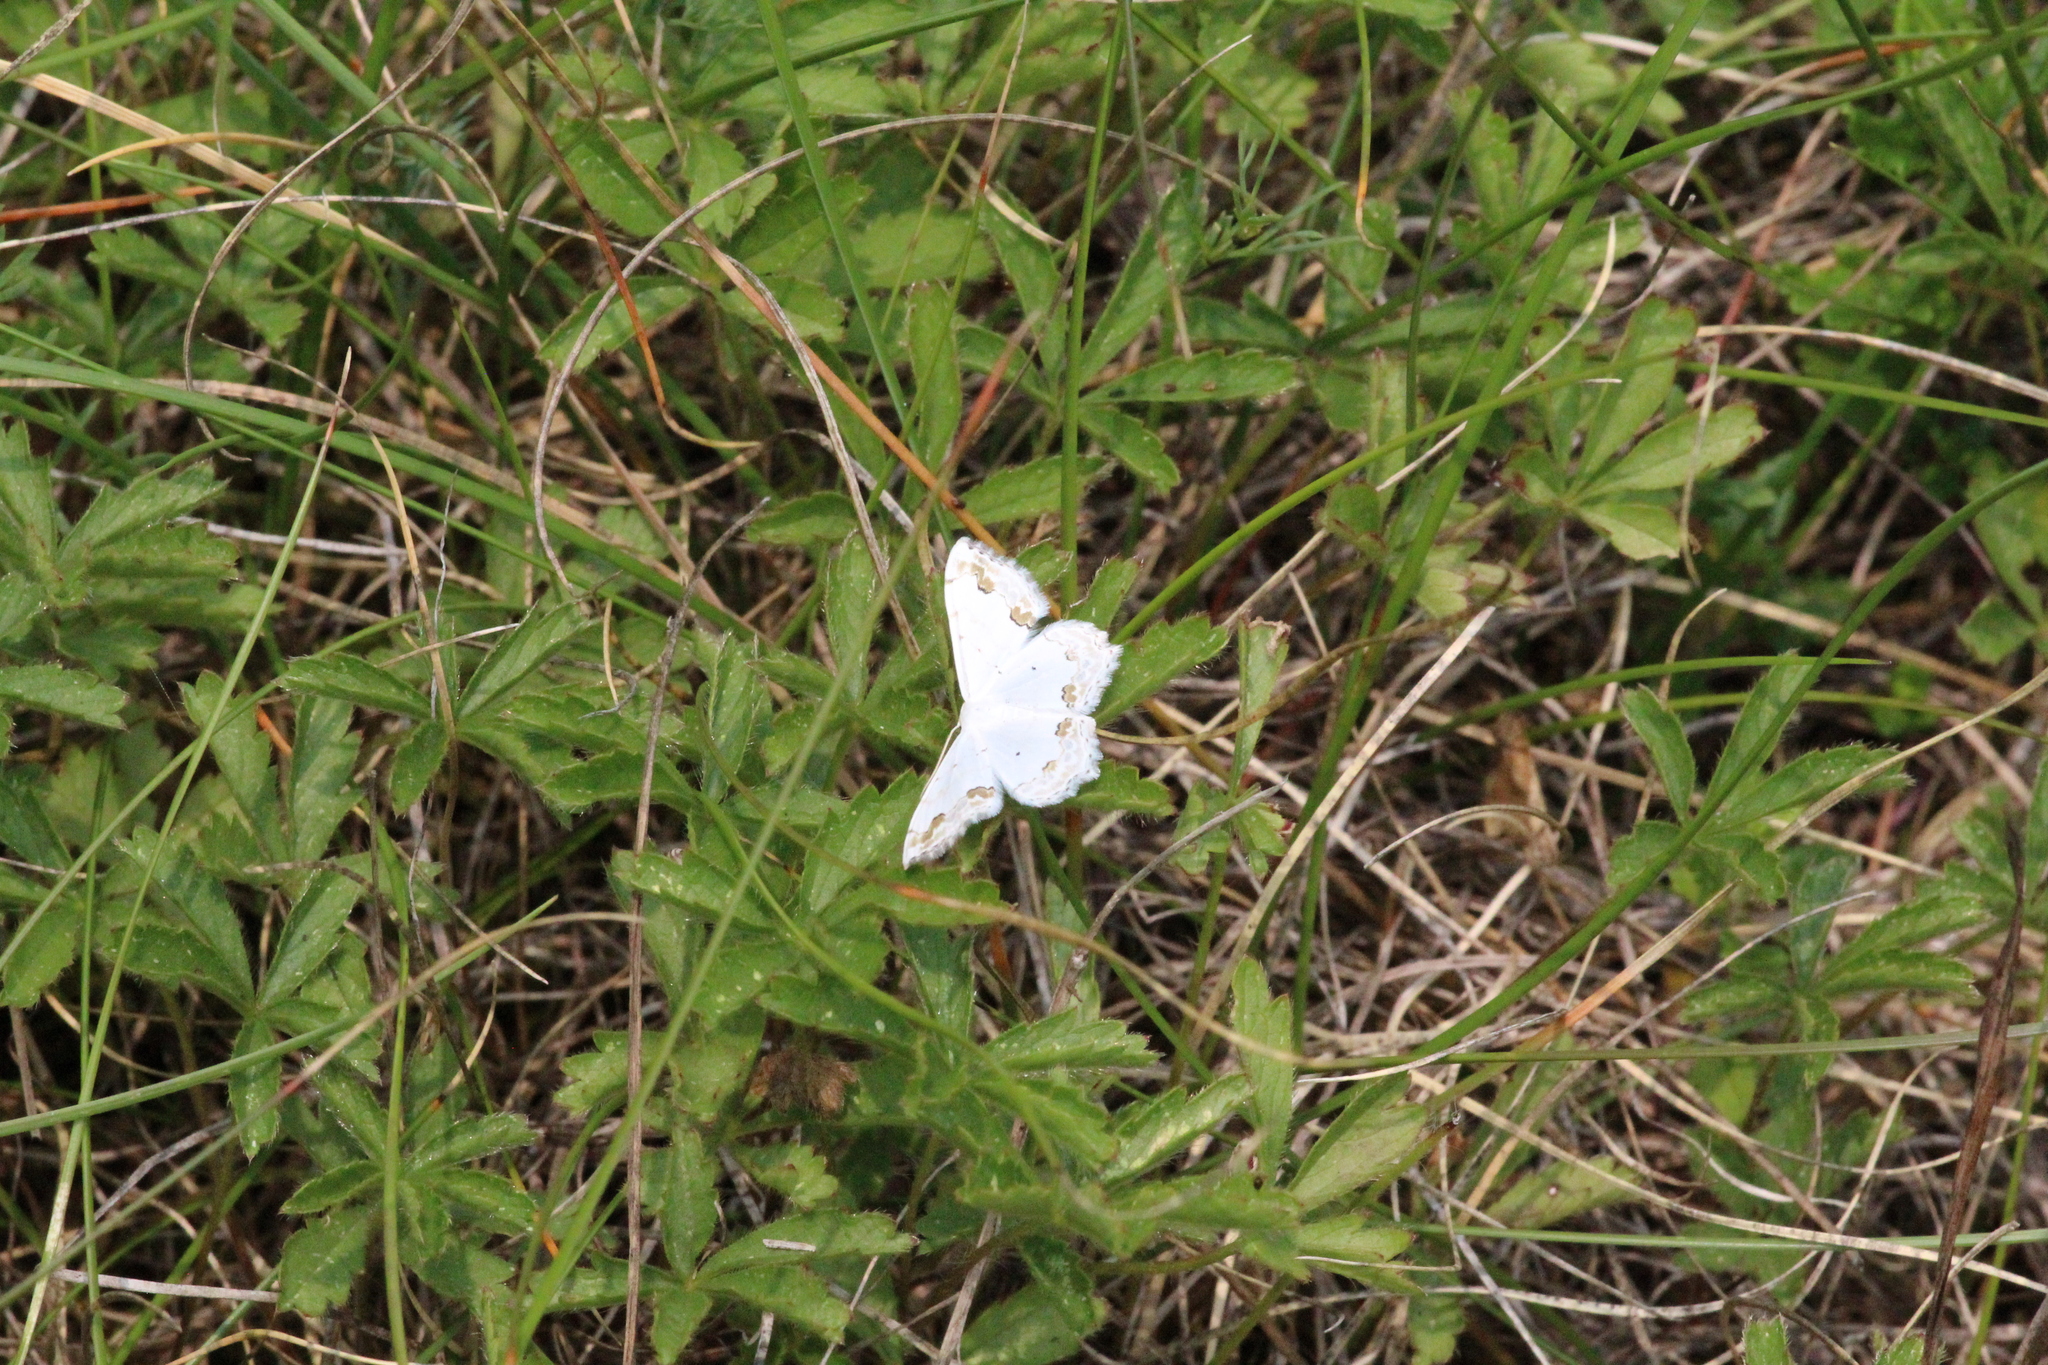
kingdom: Animalia
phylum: Arthropoda
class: Insecta
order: Lepidoptera
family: Geometridae
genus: Scopula
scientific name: Scopula ornata
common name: Lace border
